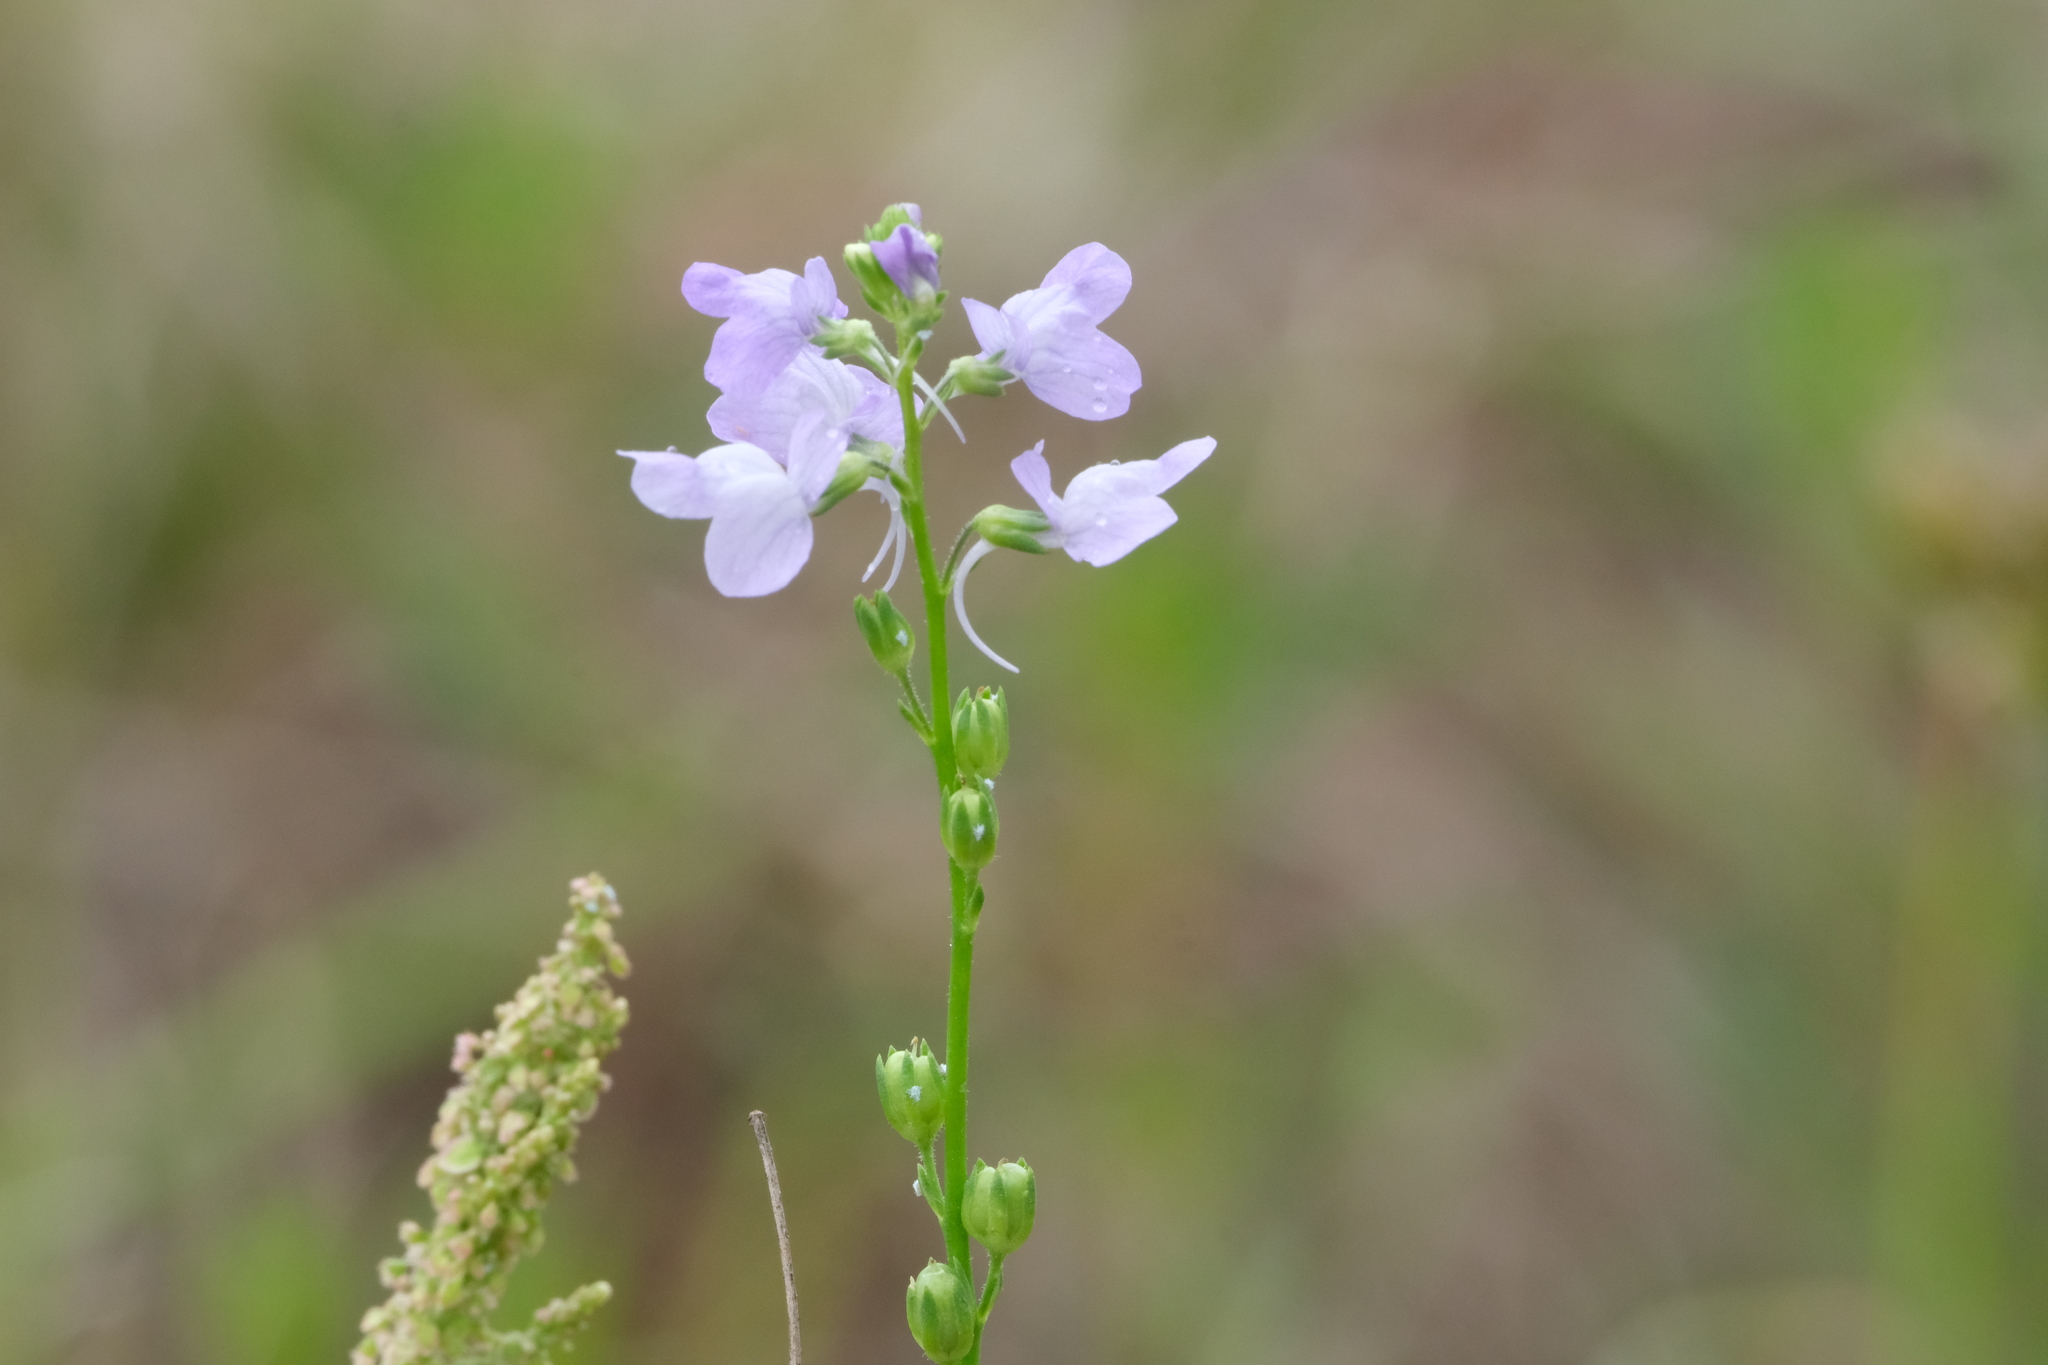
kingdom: Plantae
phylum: Tracheophyta
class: Magnoliopsida
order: Lamiales
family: Plantaginaceae
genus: Nuttallanthus
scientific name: Nuttallanthus texanus
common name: Texas toadflax
